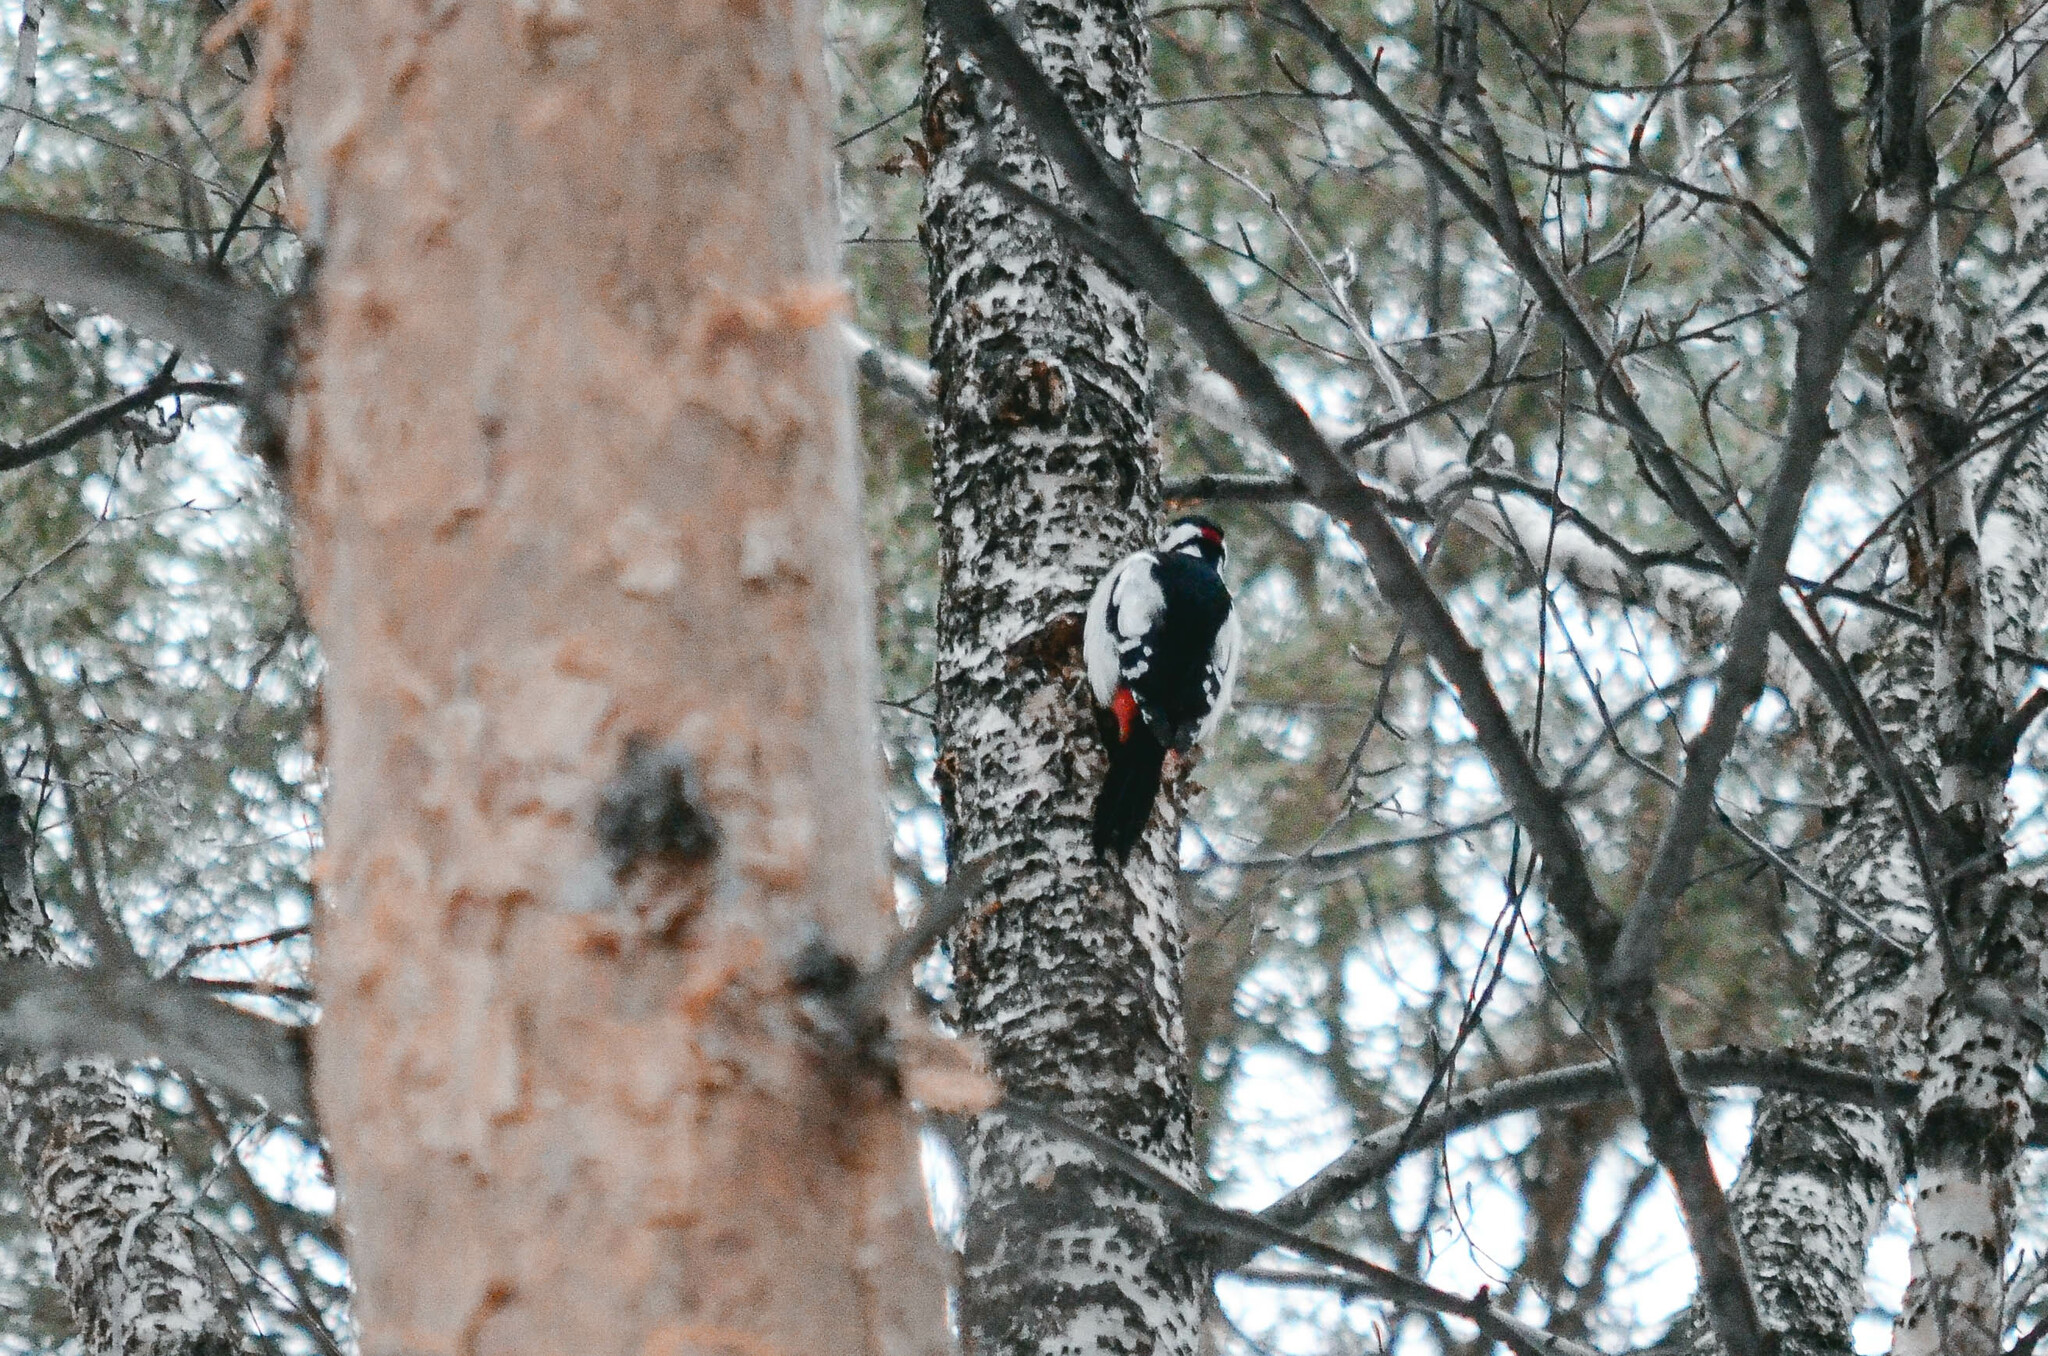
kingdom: Animalia
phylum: Chordata
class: Aves
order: Piciformes
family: Picidae
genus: Dendrocopos
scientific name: Dendrocopos major
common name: Great spotted woodpecker
